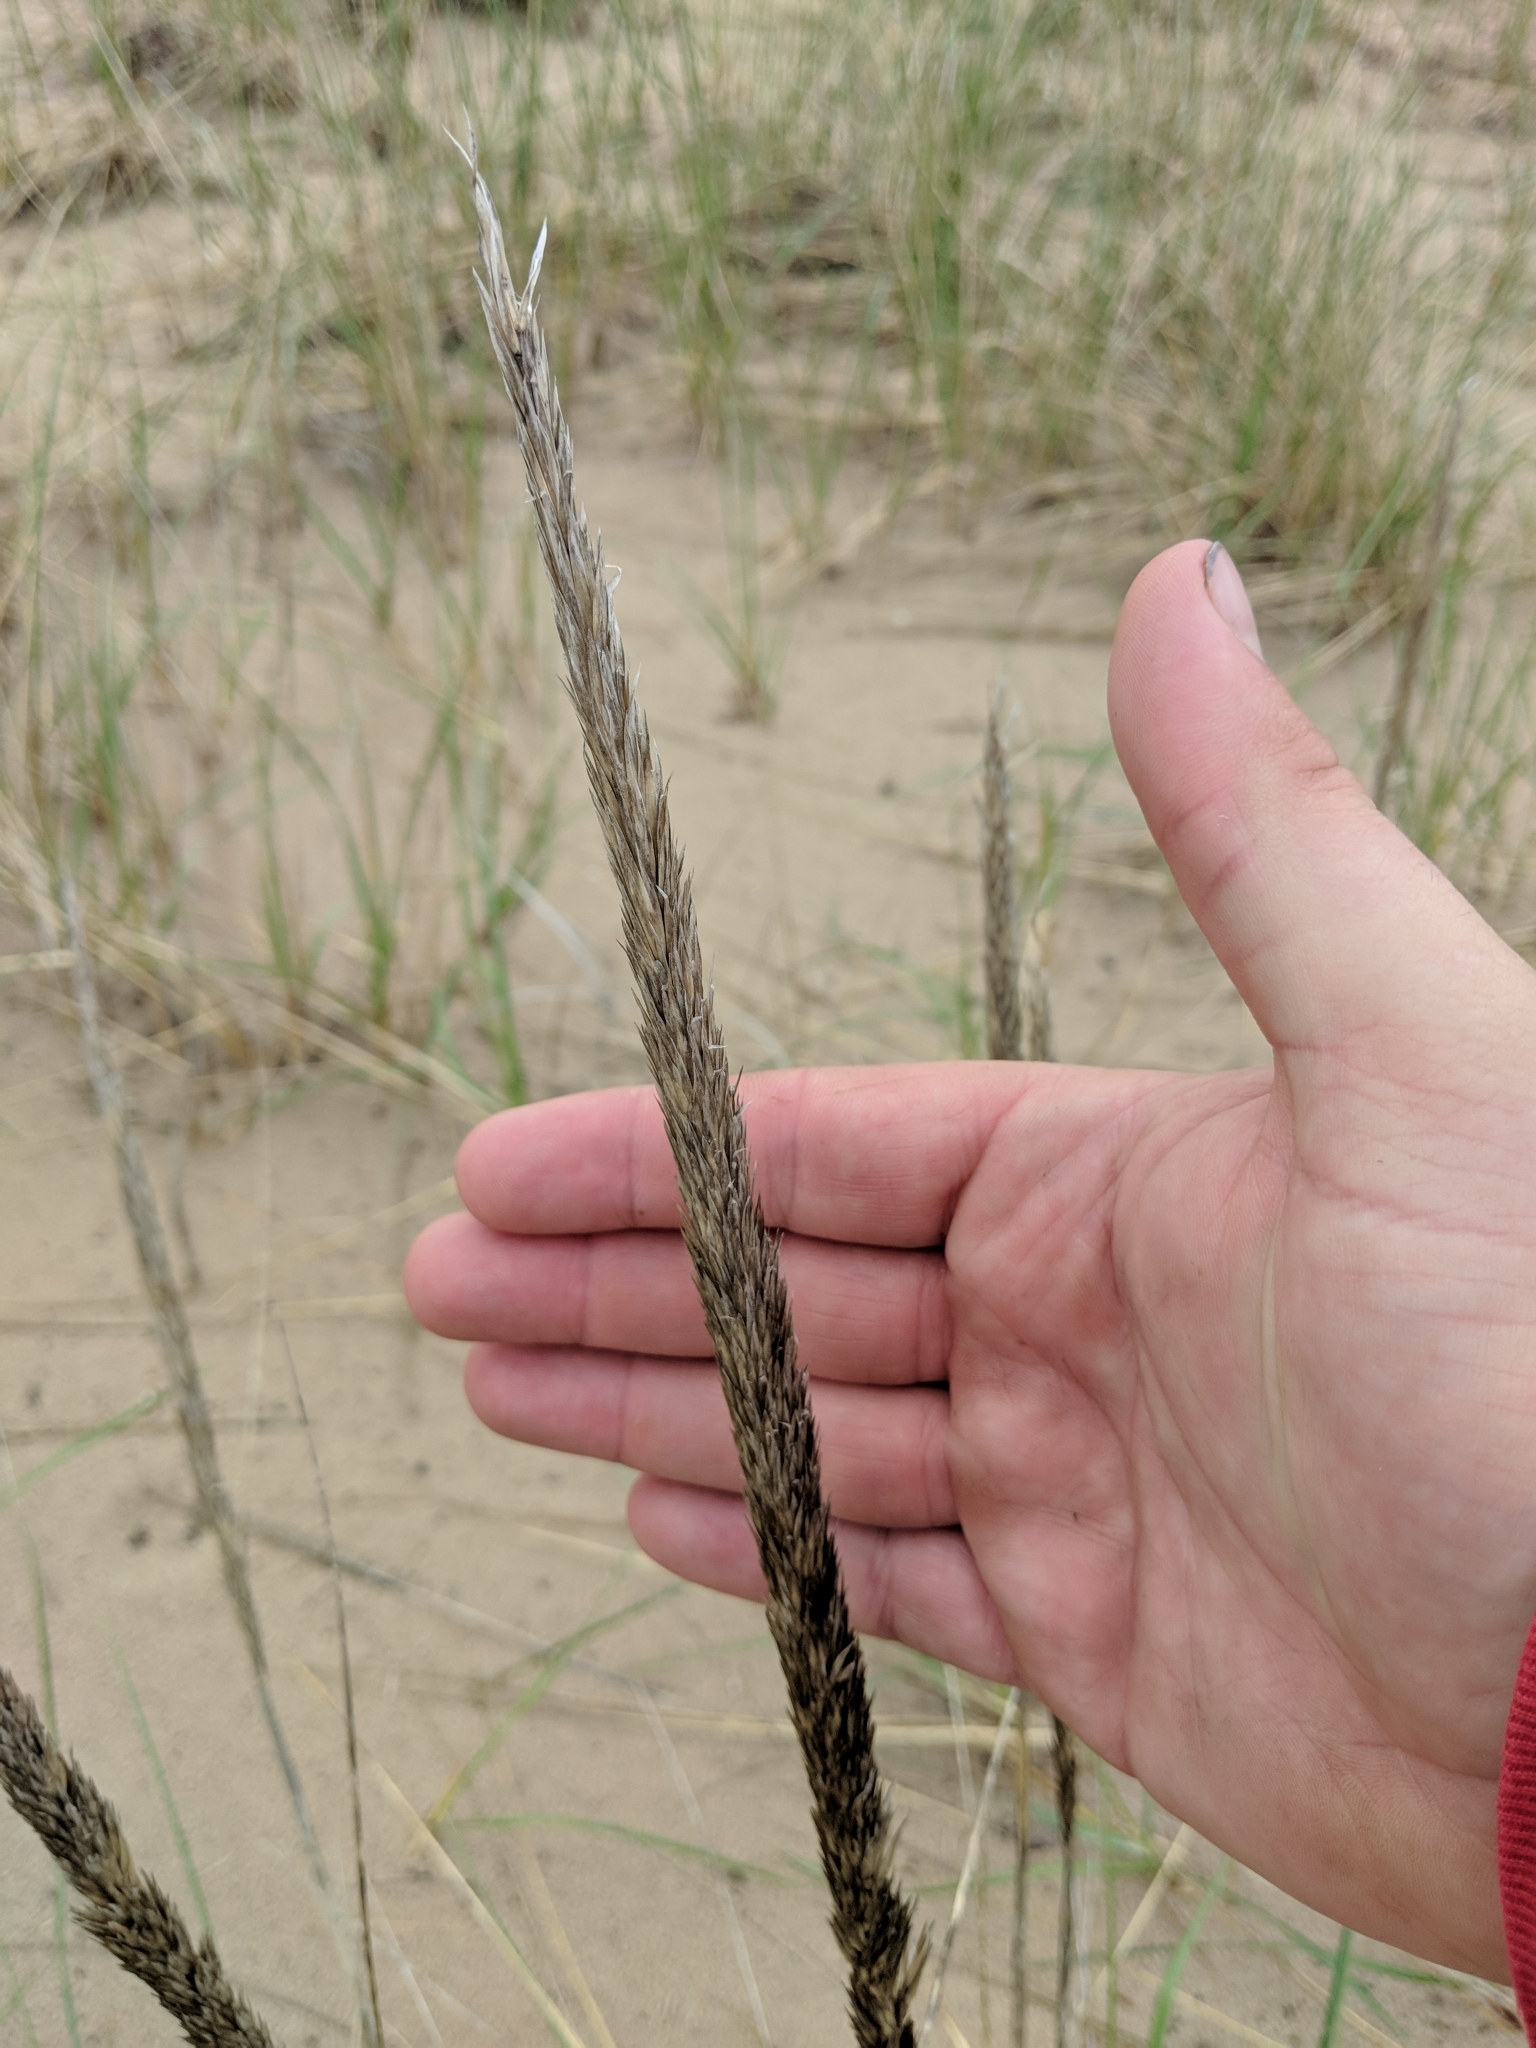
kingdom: Plantae
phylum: Tracheophyta
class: Liliopsida
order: Poales
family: Poaceae
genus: Calamagrostis
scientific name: Calamagrostis breviligulata
